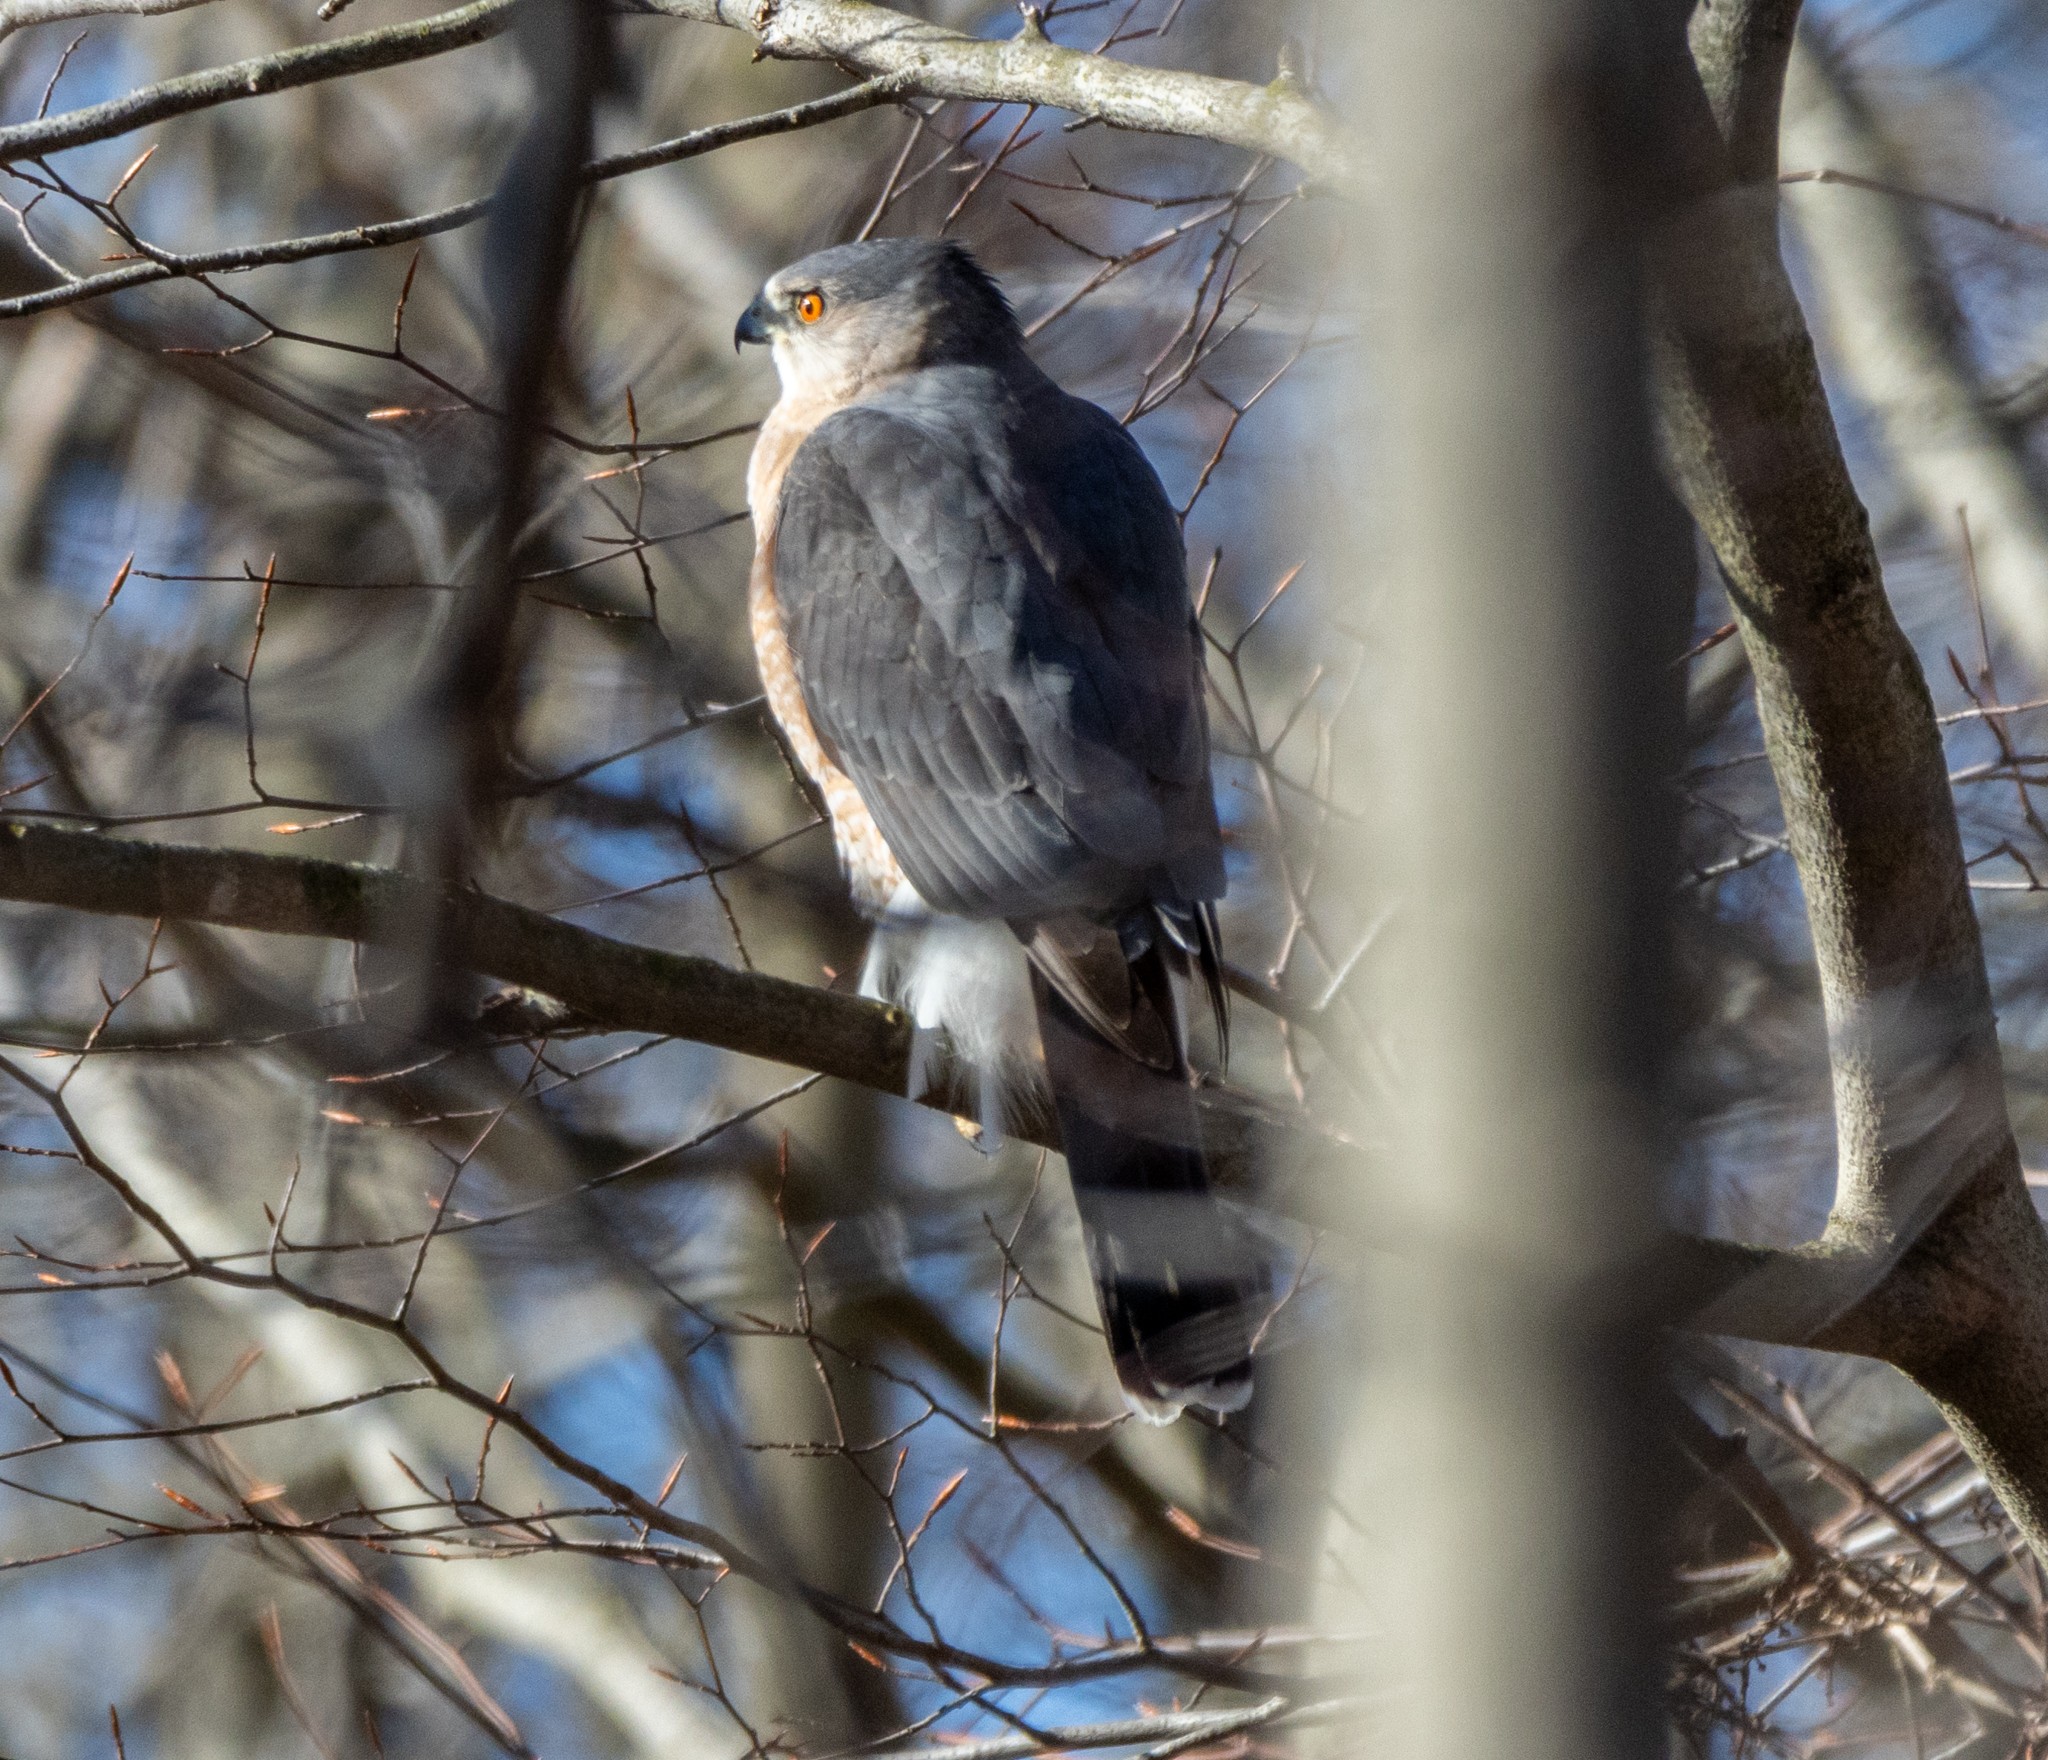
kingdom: Animalia
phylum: Chordata
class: Aves
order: Accipitriformes
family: Accipitridae
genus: Accipiter
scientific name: Accipiter cooperii
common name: Cooper's hawk
